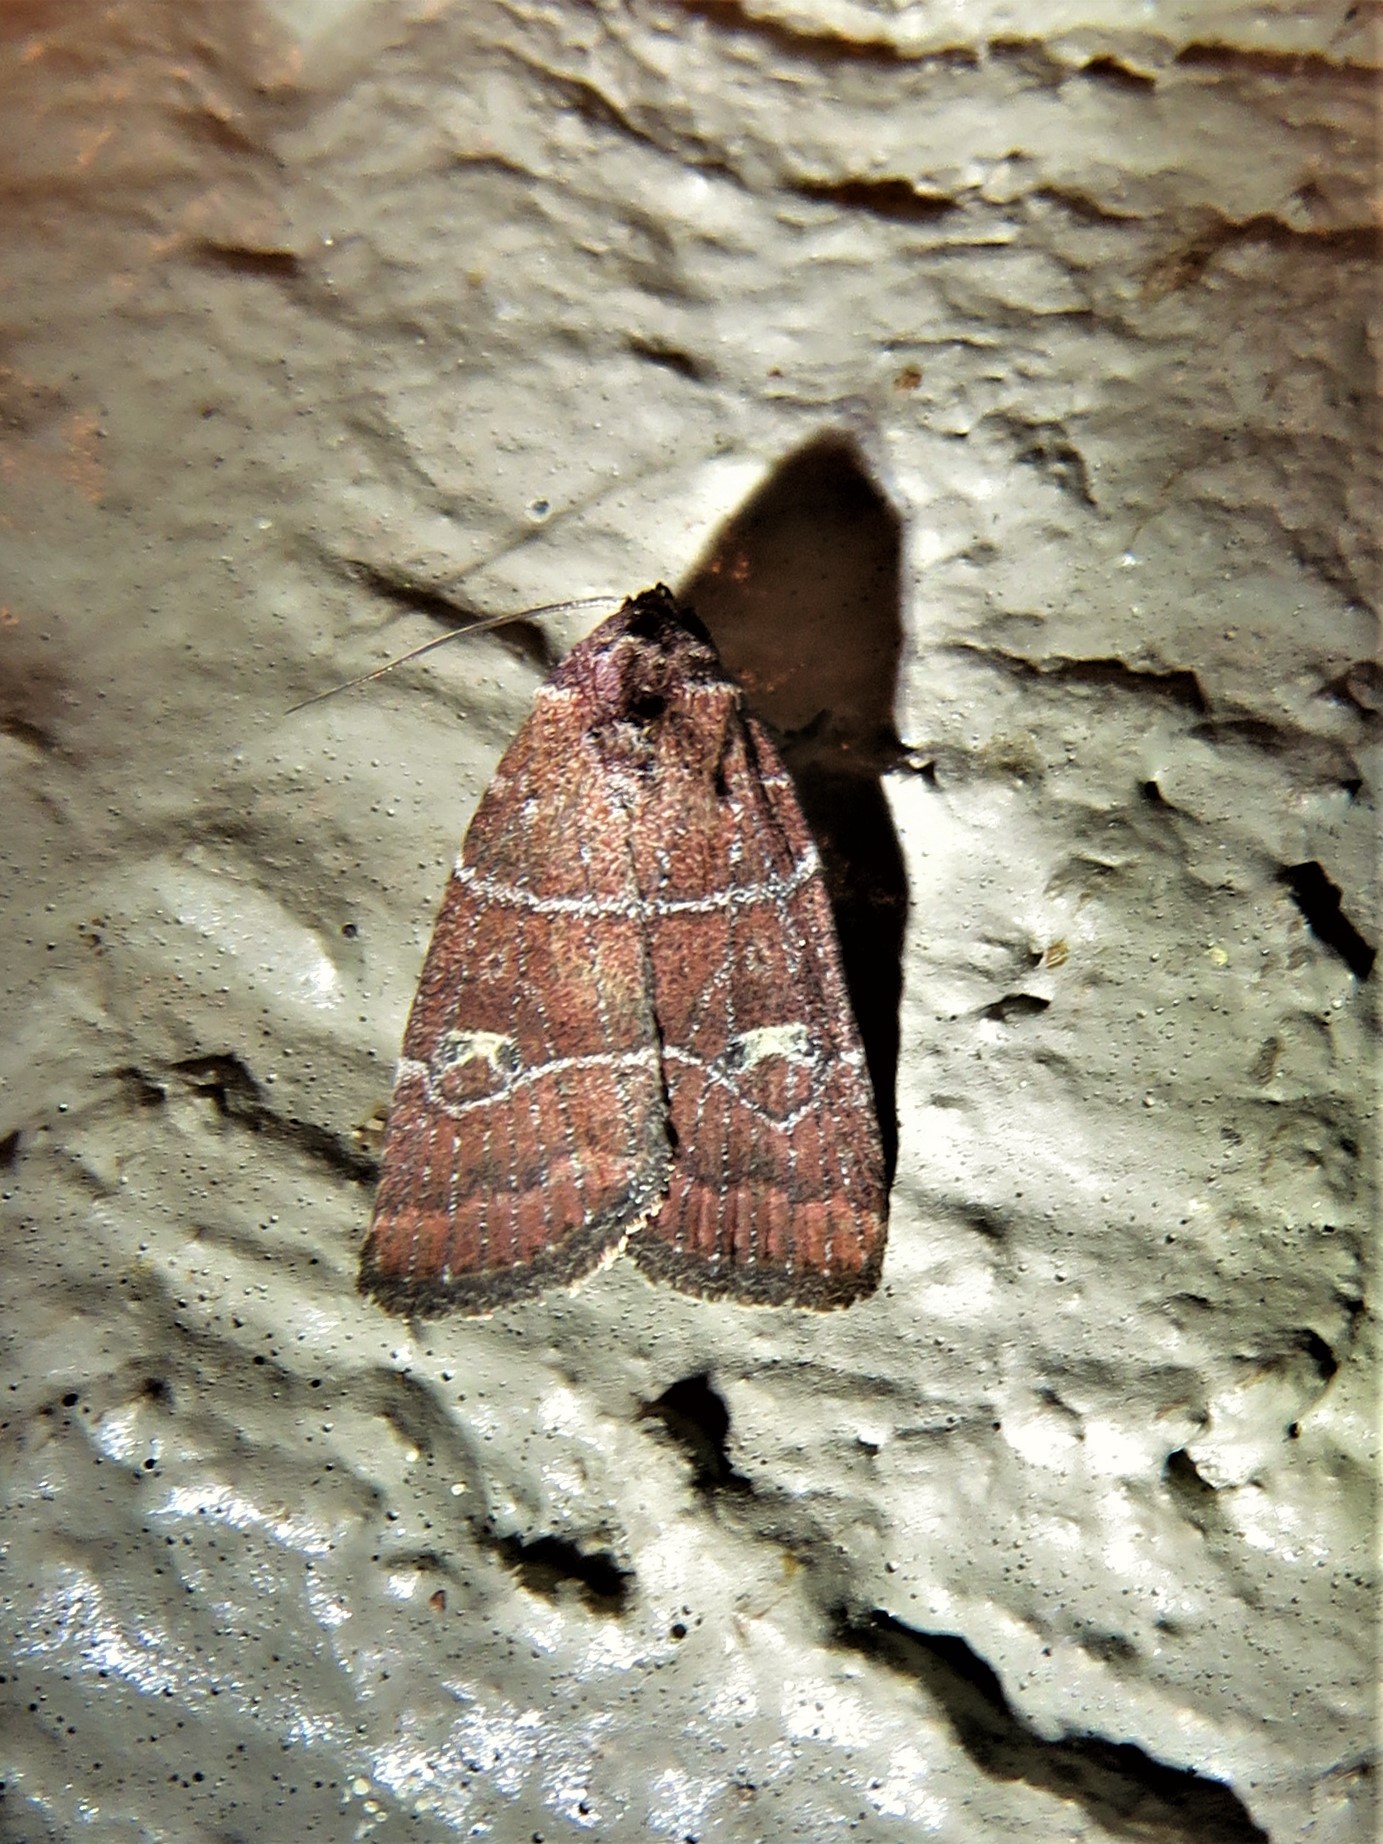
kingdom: Animalia
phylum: Arthropoda
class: Insecta
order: Lepidoptera
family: Noctuidae
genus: Elaphria
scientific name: Elaphria grata
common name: Grateful midget moth
